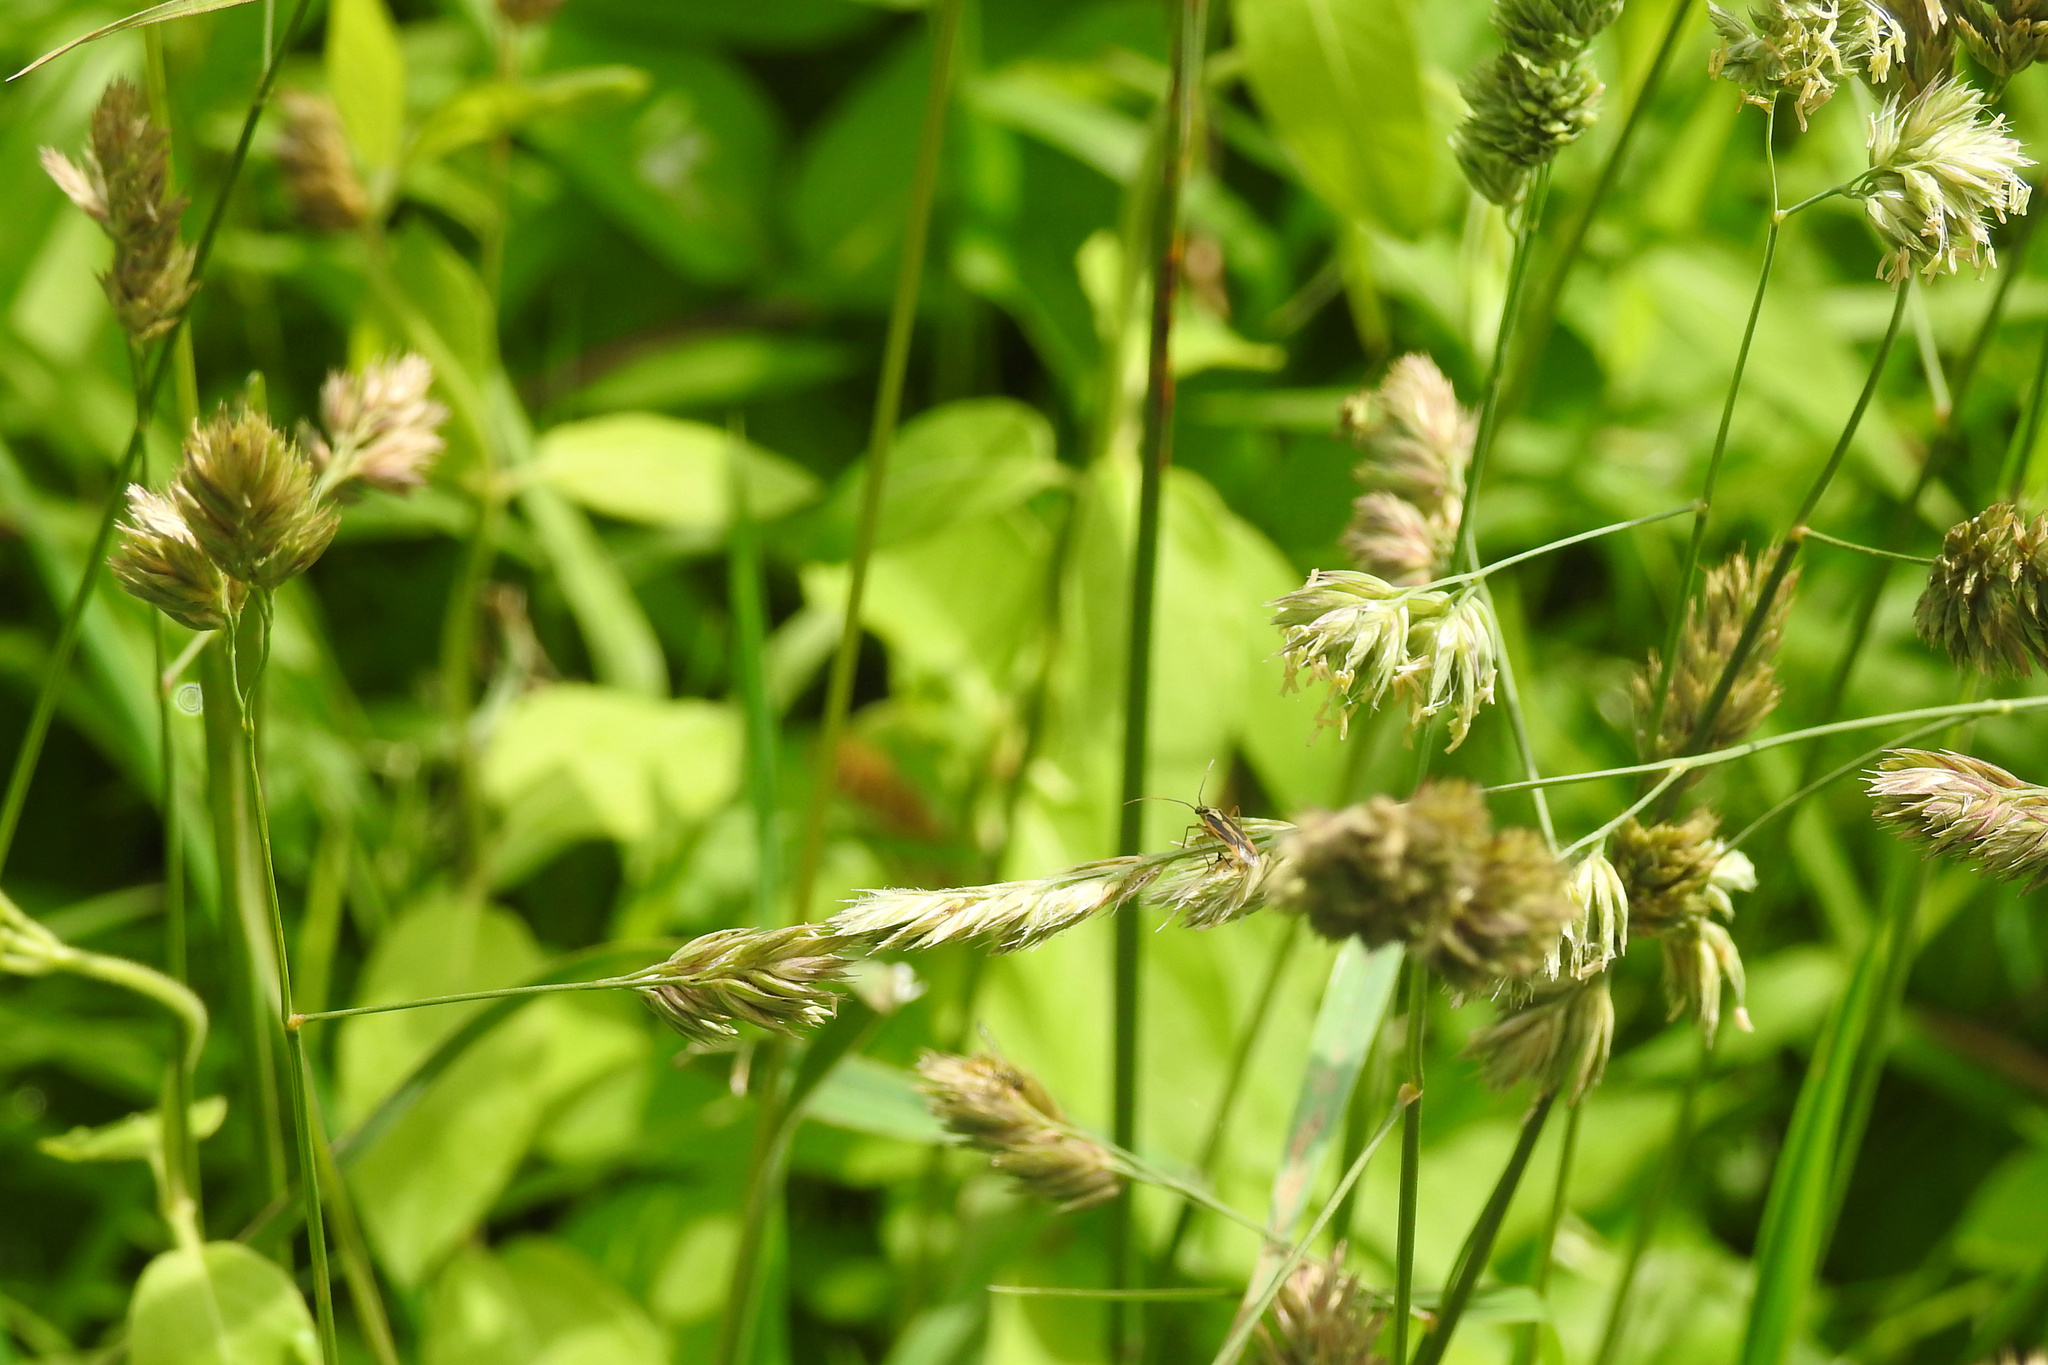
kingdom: Plantae
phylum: Tracheophyta
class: Liliopsida
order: Poales
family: Poaceae
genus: Dactylis
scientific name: Dactylis glomerata
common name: Orchardgrass
